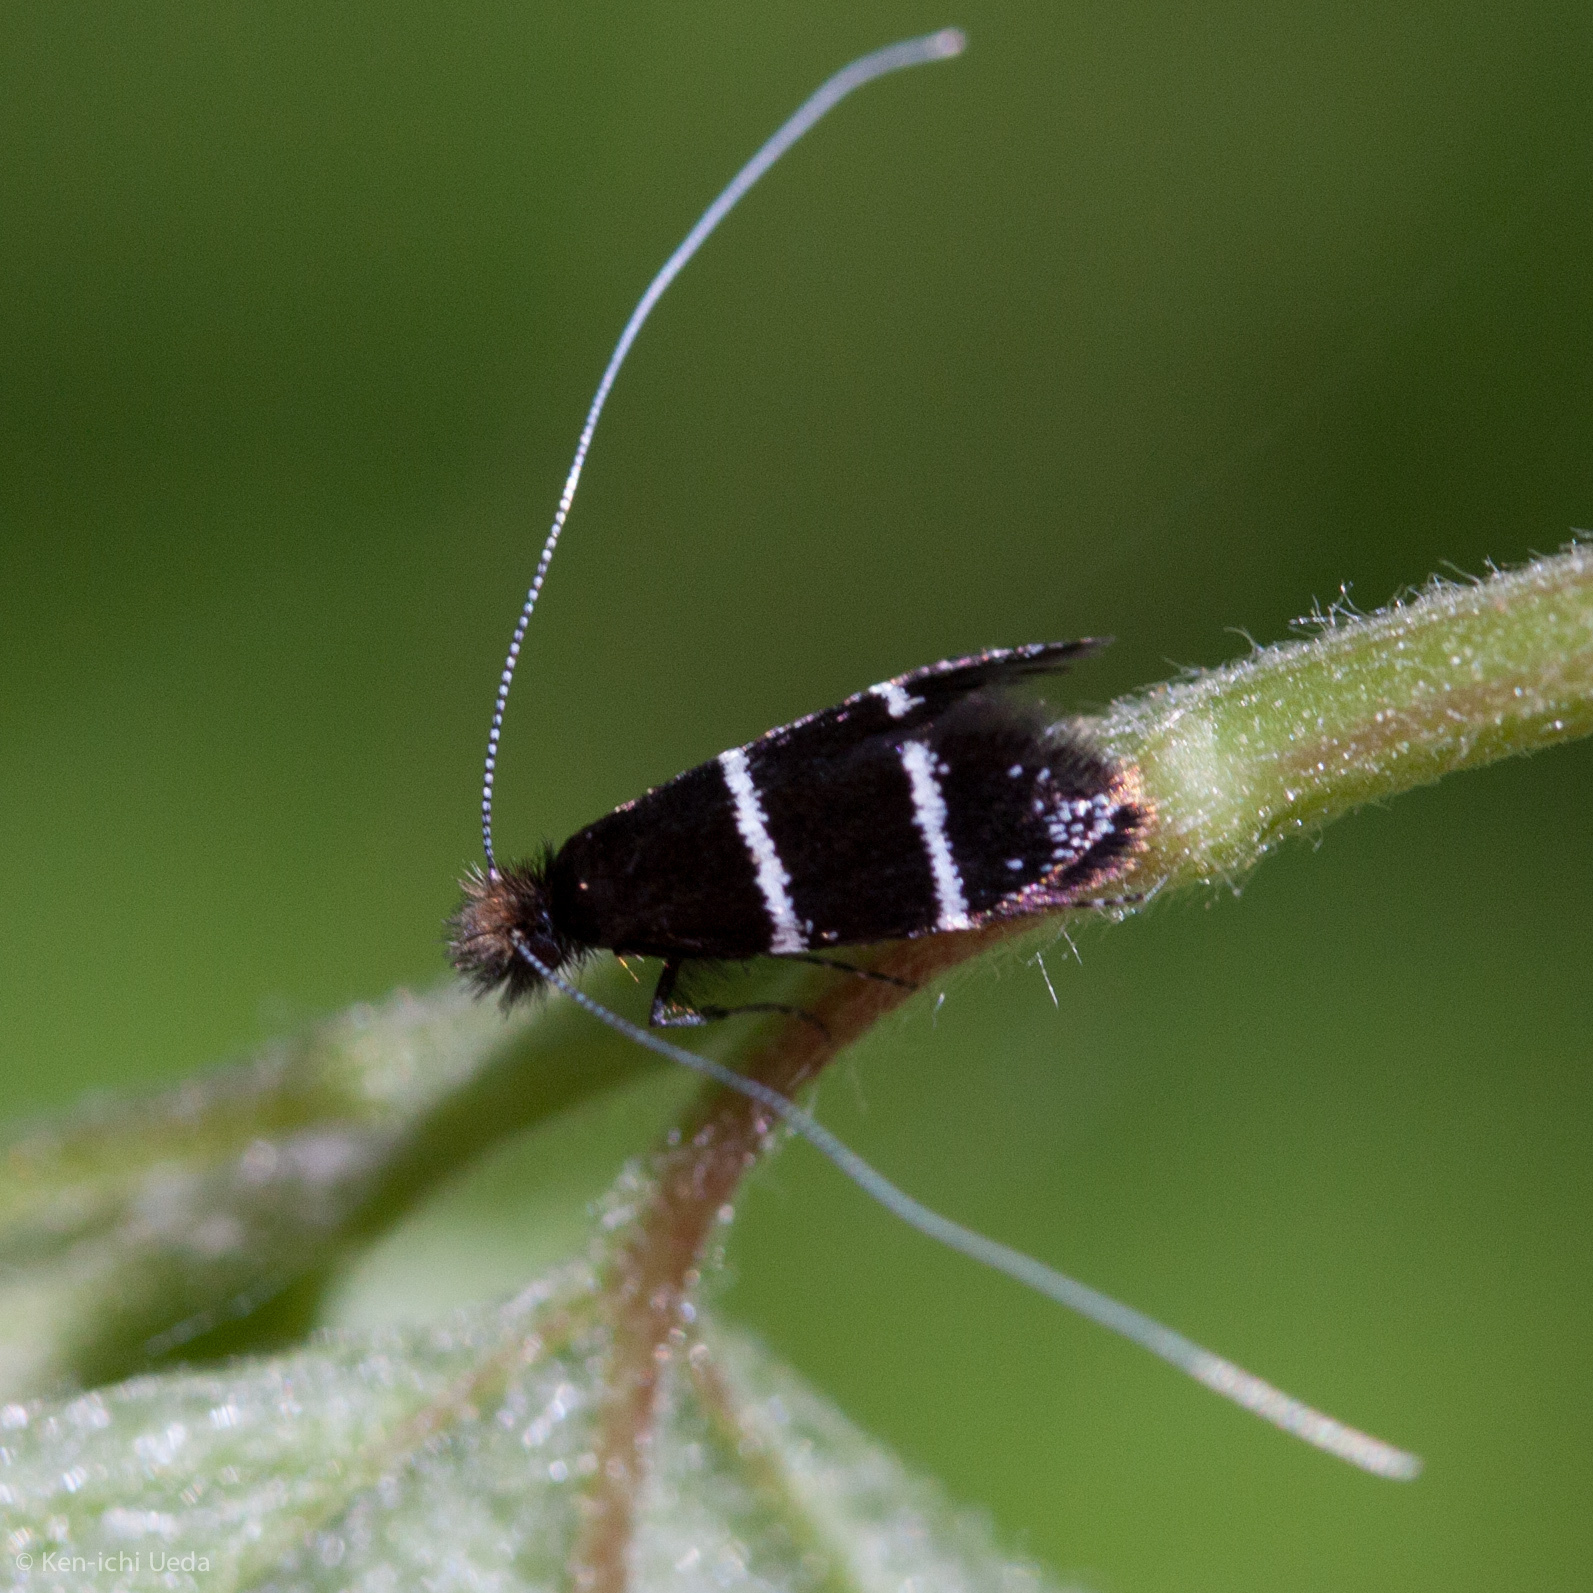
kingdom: Animalia
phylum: Arthropoda
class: Insecta
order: Lepidoptera
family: Adelidae
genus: Adela
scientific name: Adela septentrionella
